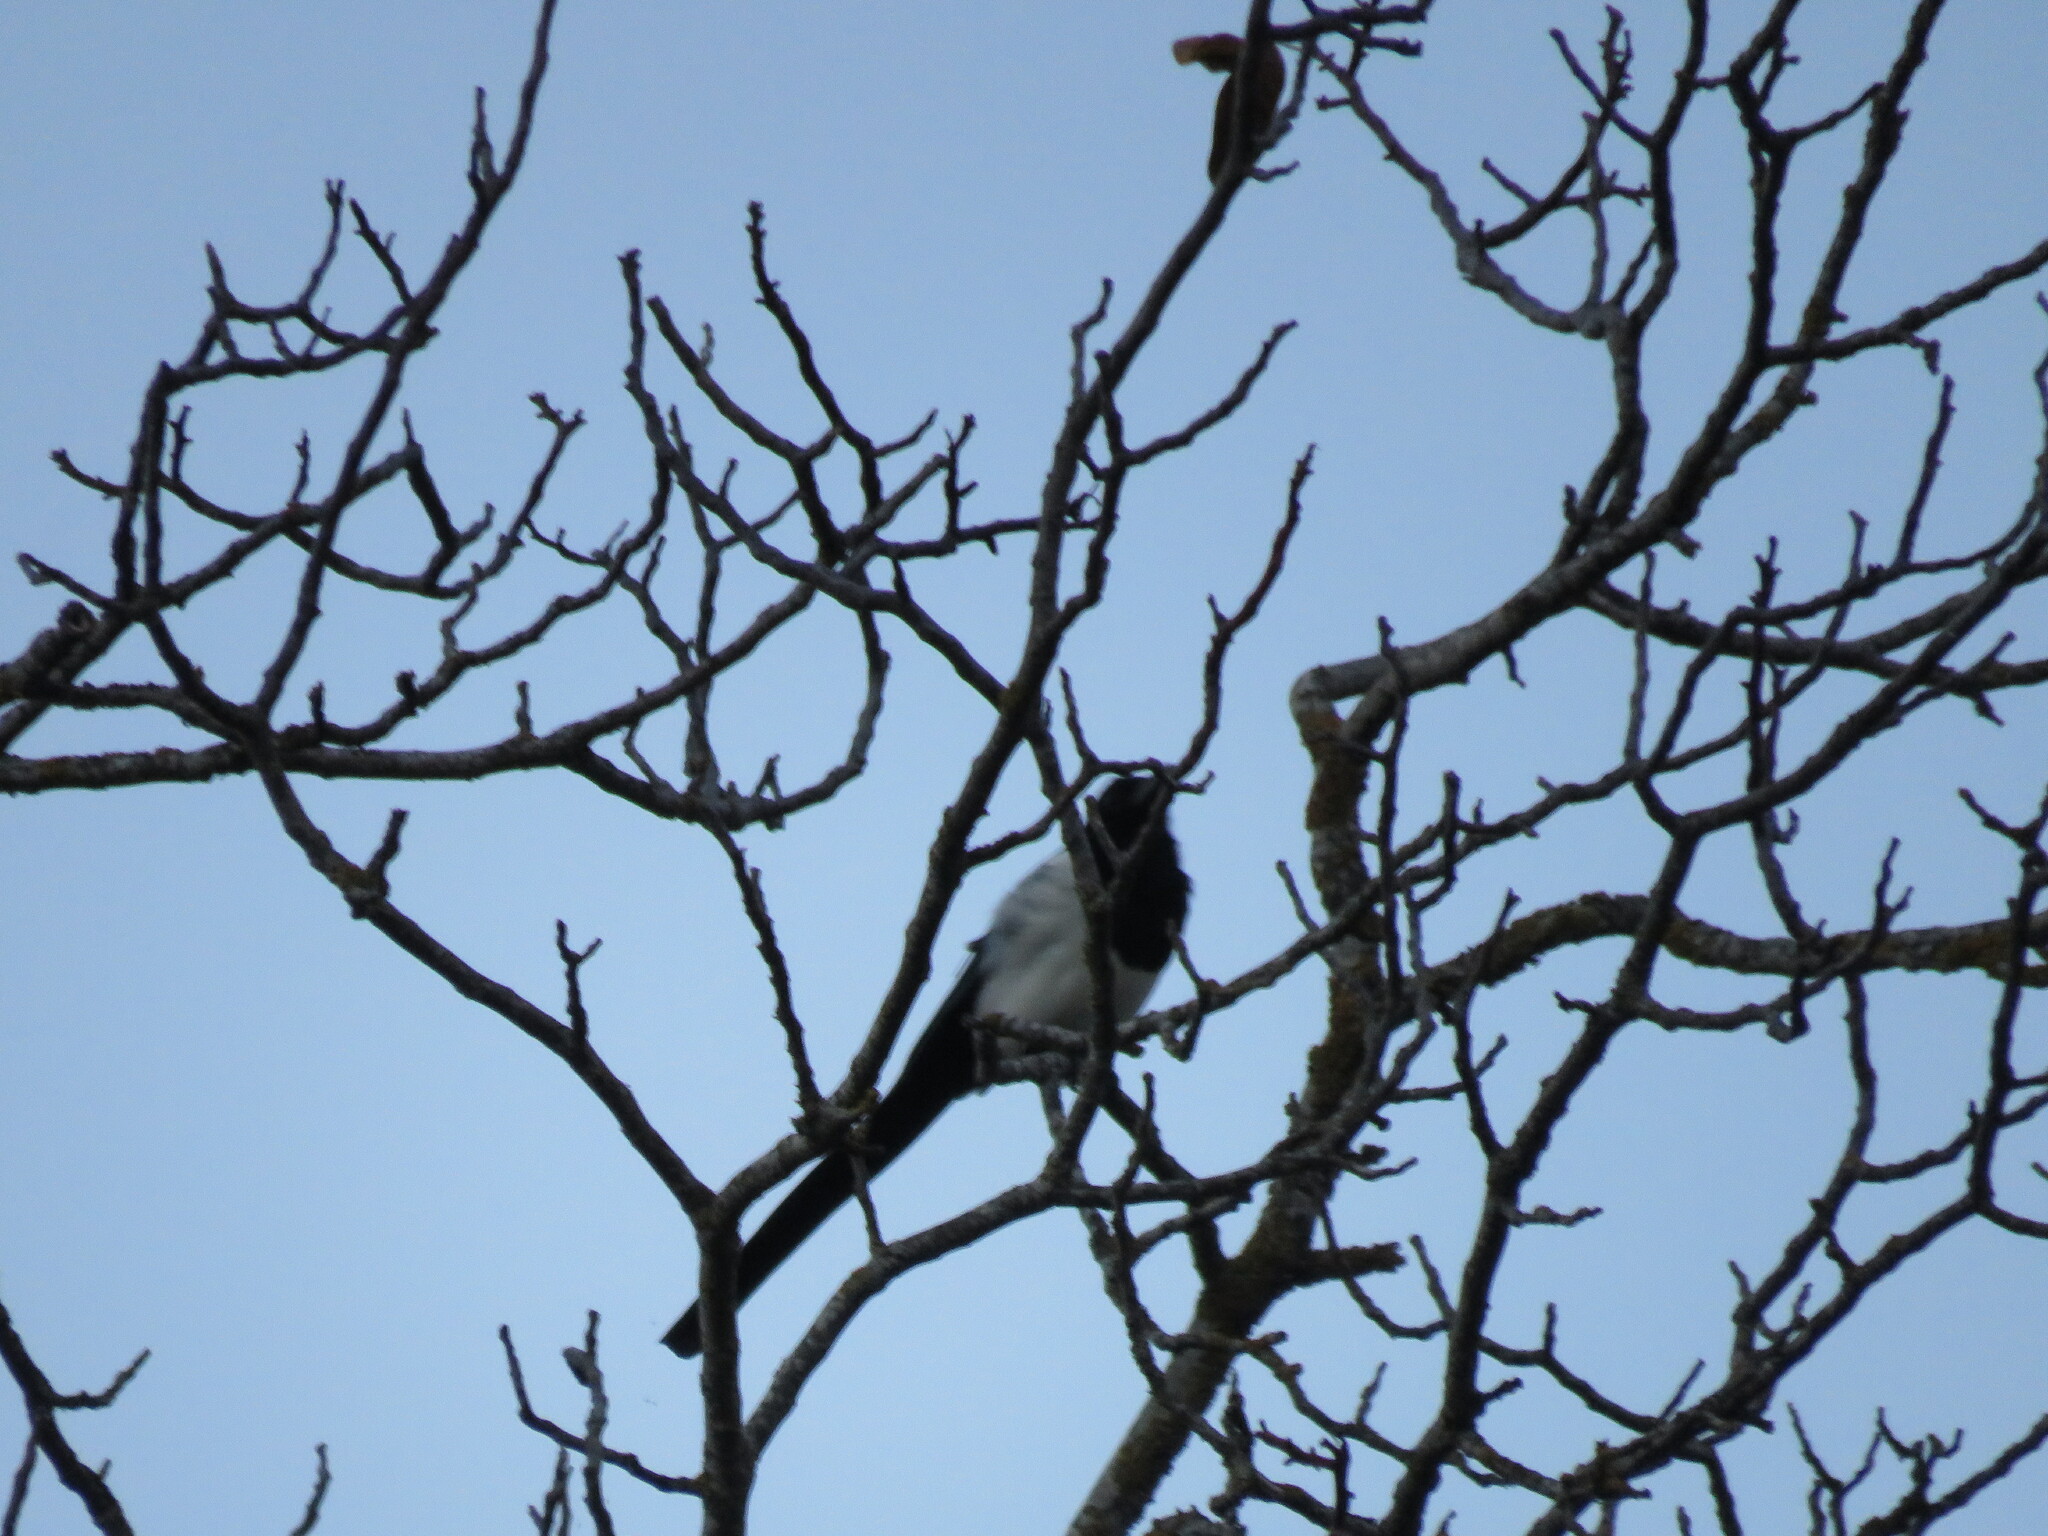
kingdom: Animalia
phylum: Chordata
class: Aves
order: Passeriformes
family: Corvidae
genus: Pica
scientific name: Pica pica
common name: Eurasian magpie
